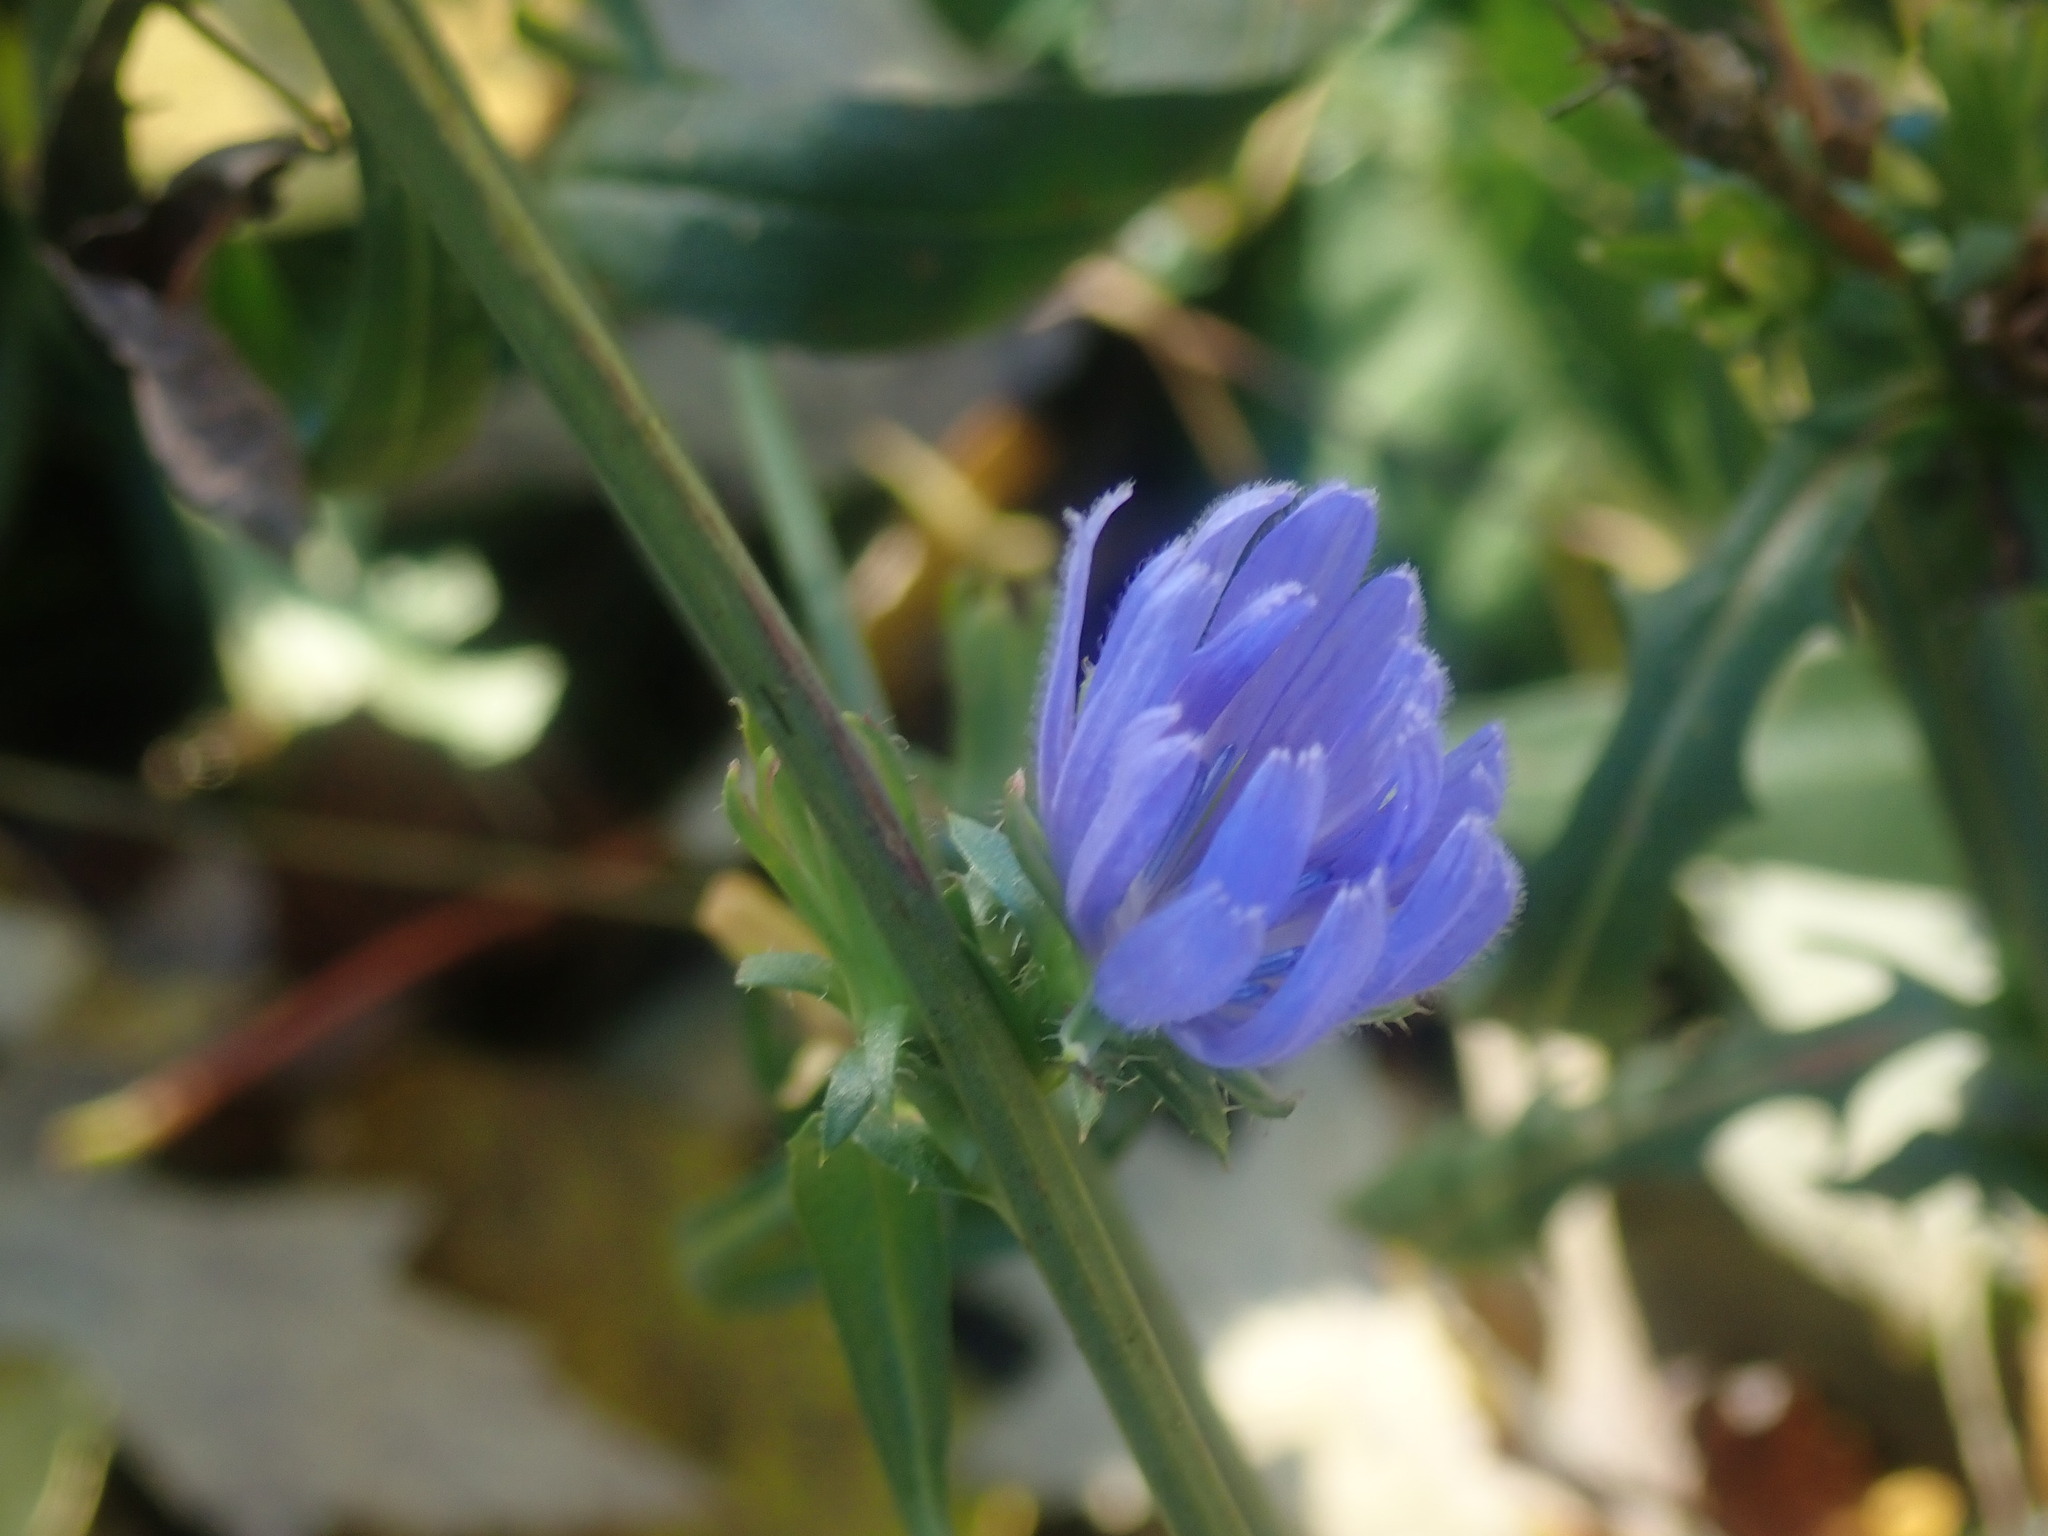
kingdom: Plantae
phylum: Tracheophyta
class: Magnoliopsida
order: Asterales
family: Asteraceae
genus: Cichorium
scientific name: Cichorium intybus
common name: Chicory
